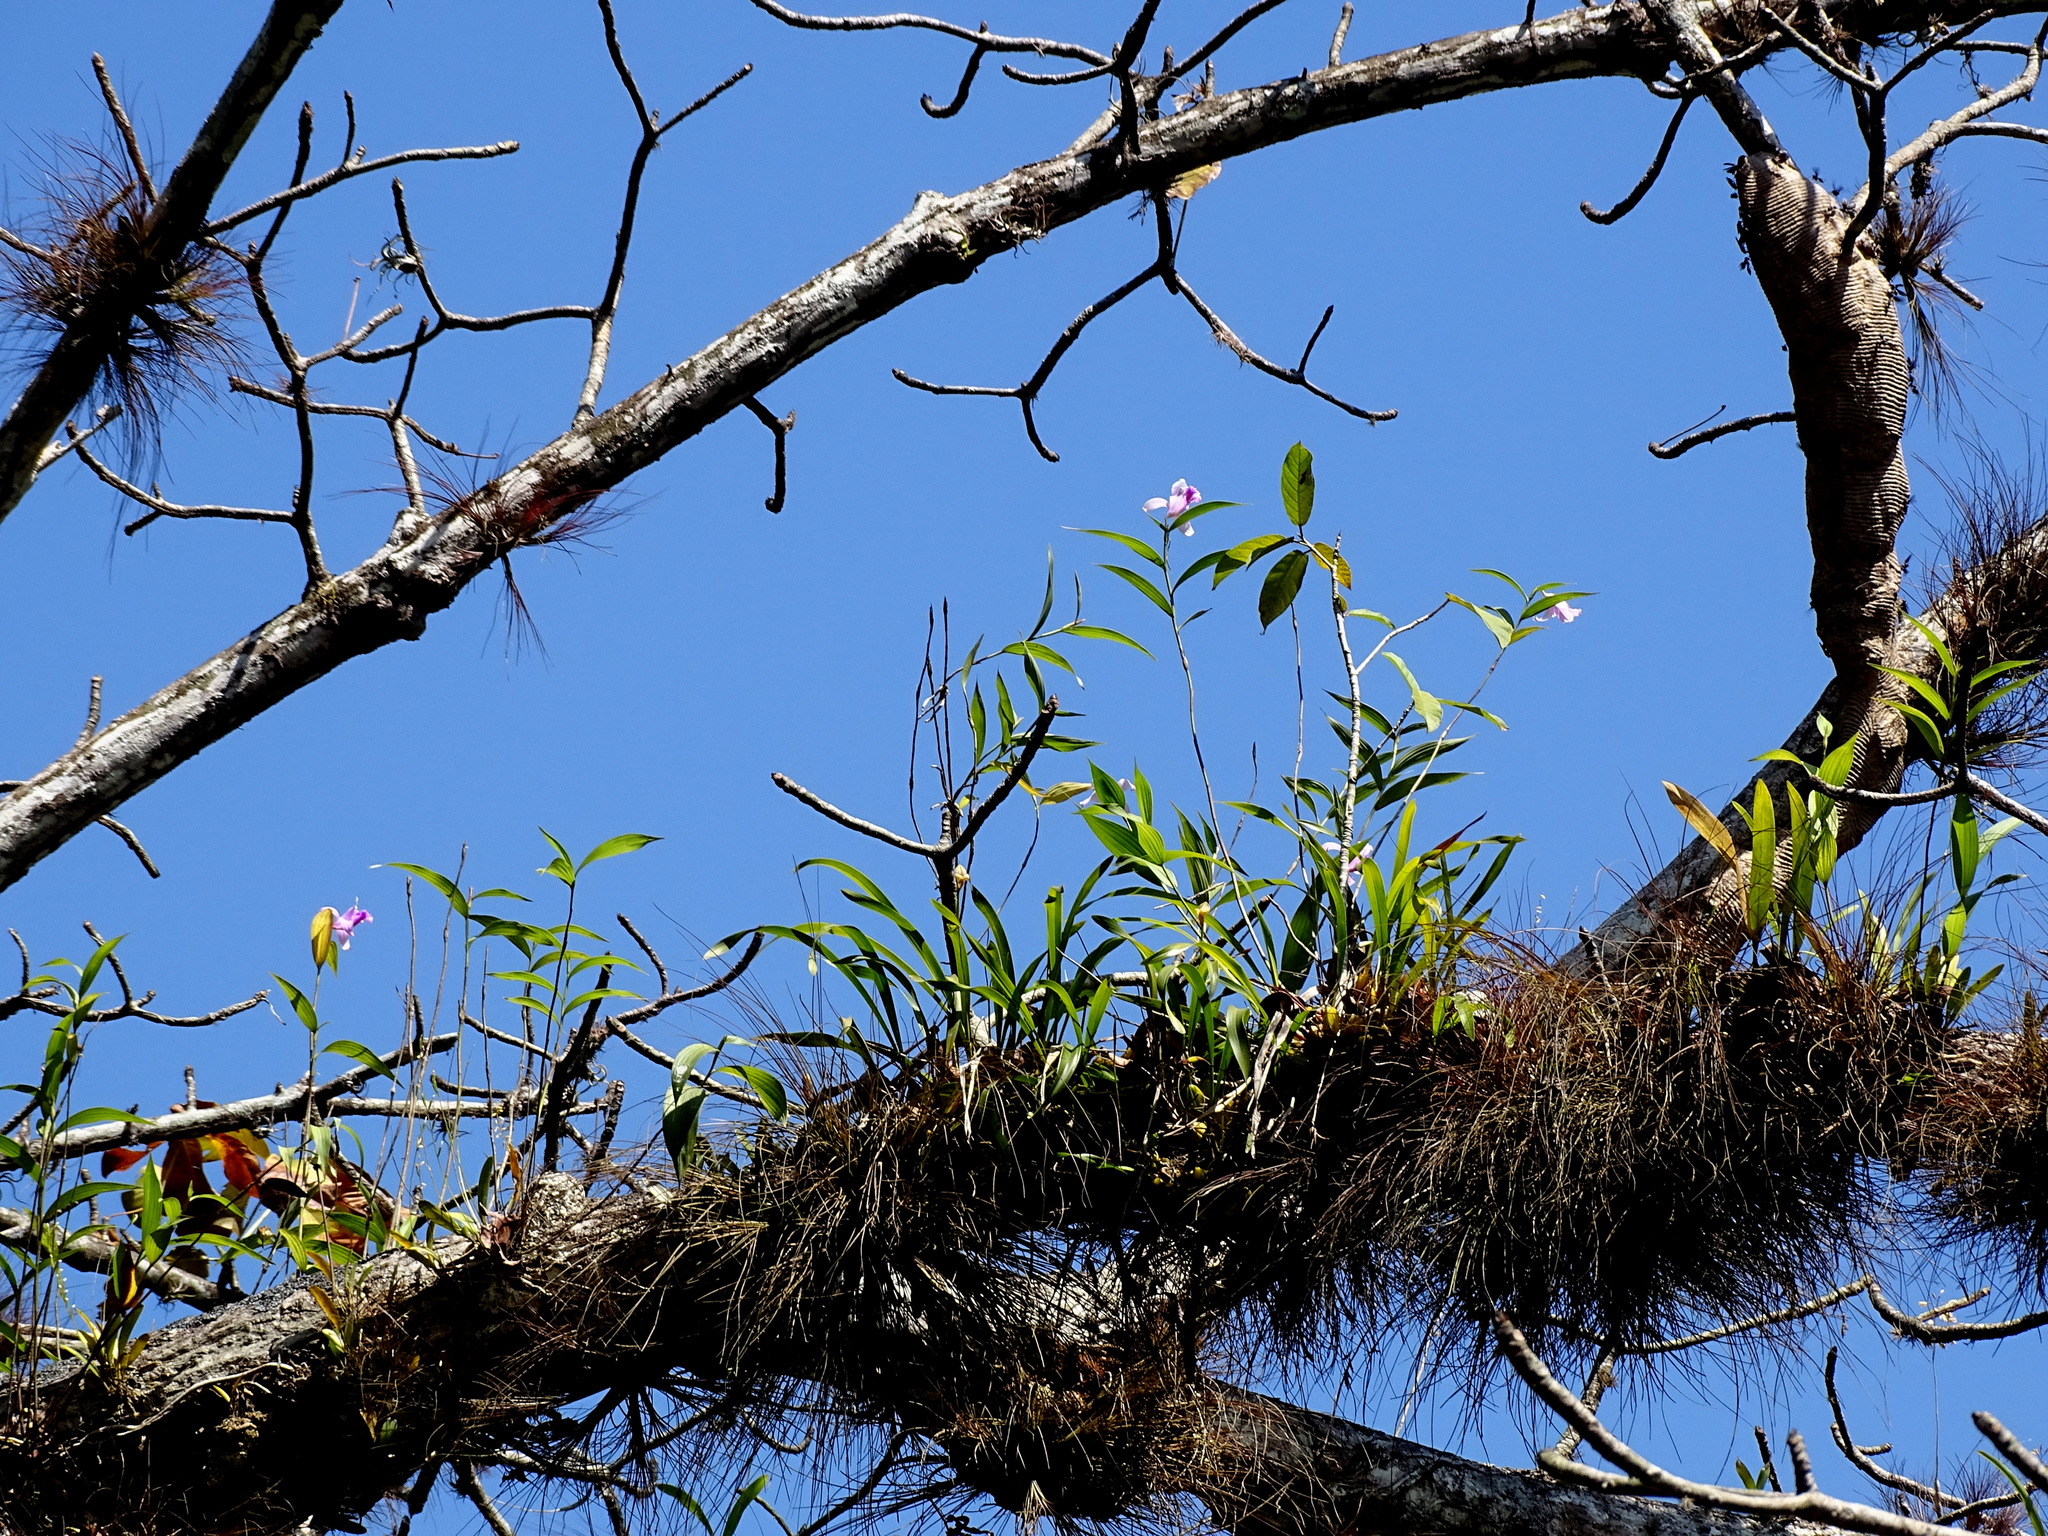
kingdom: Plantae
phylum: Tracheophyta
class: Liliopsida
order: Asparagales
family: Orchidaceae
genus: Sobralia
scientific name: Sobralia decora
